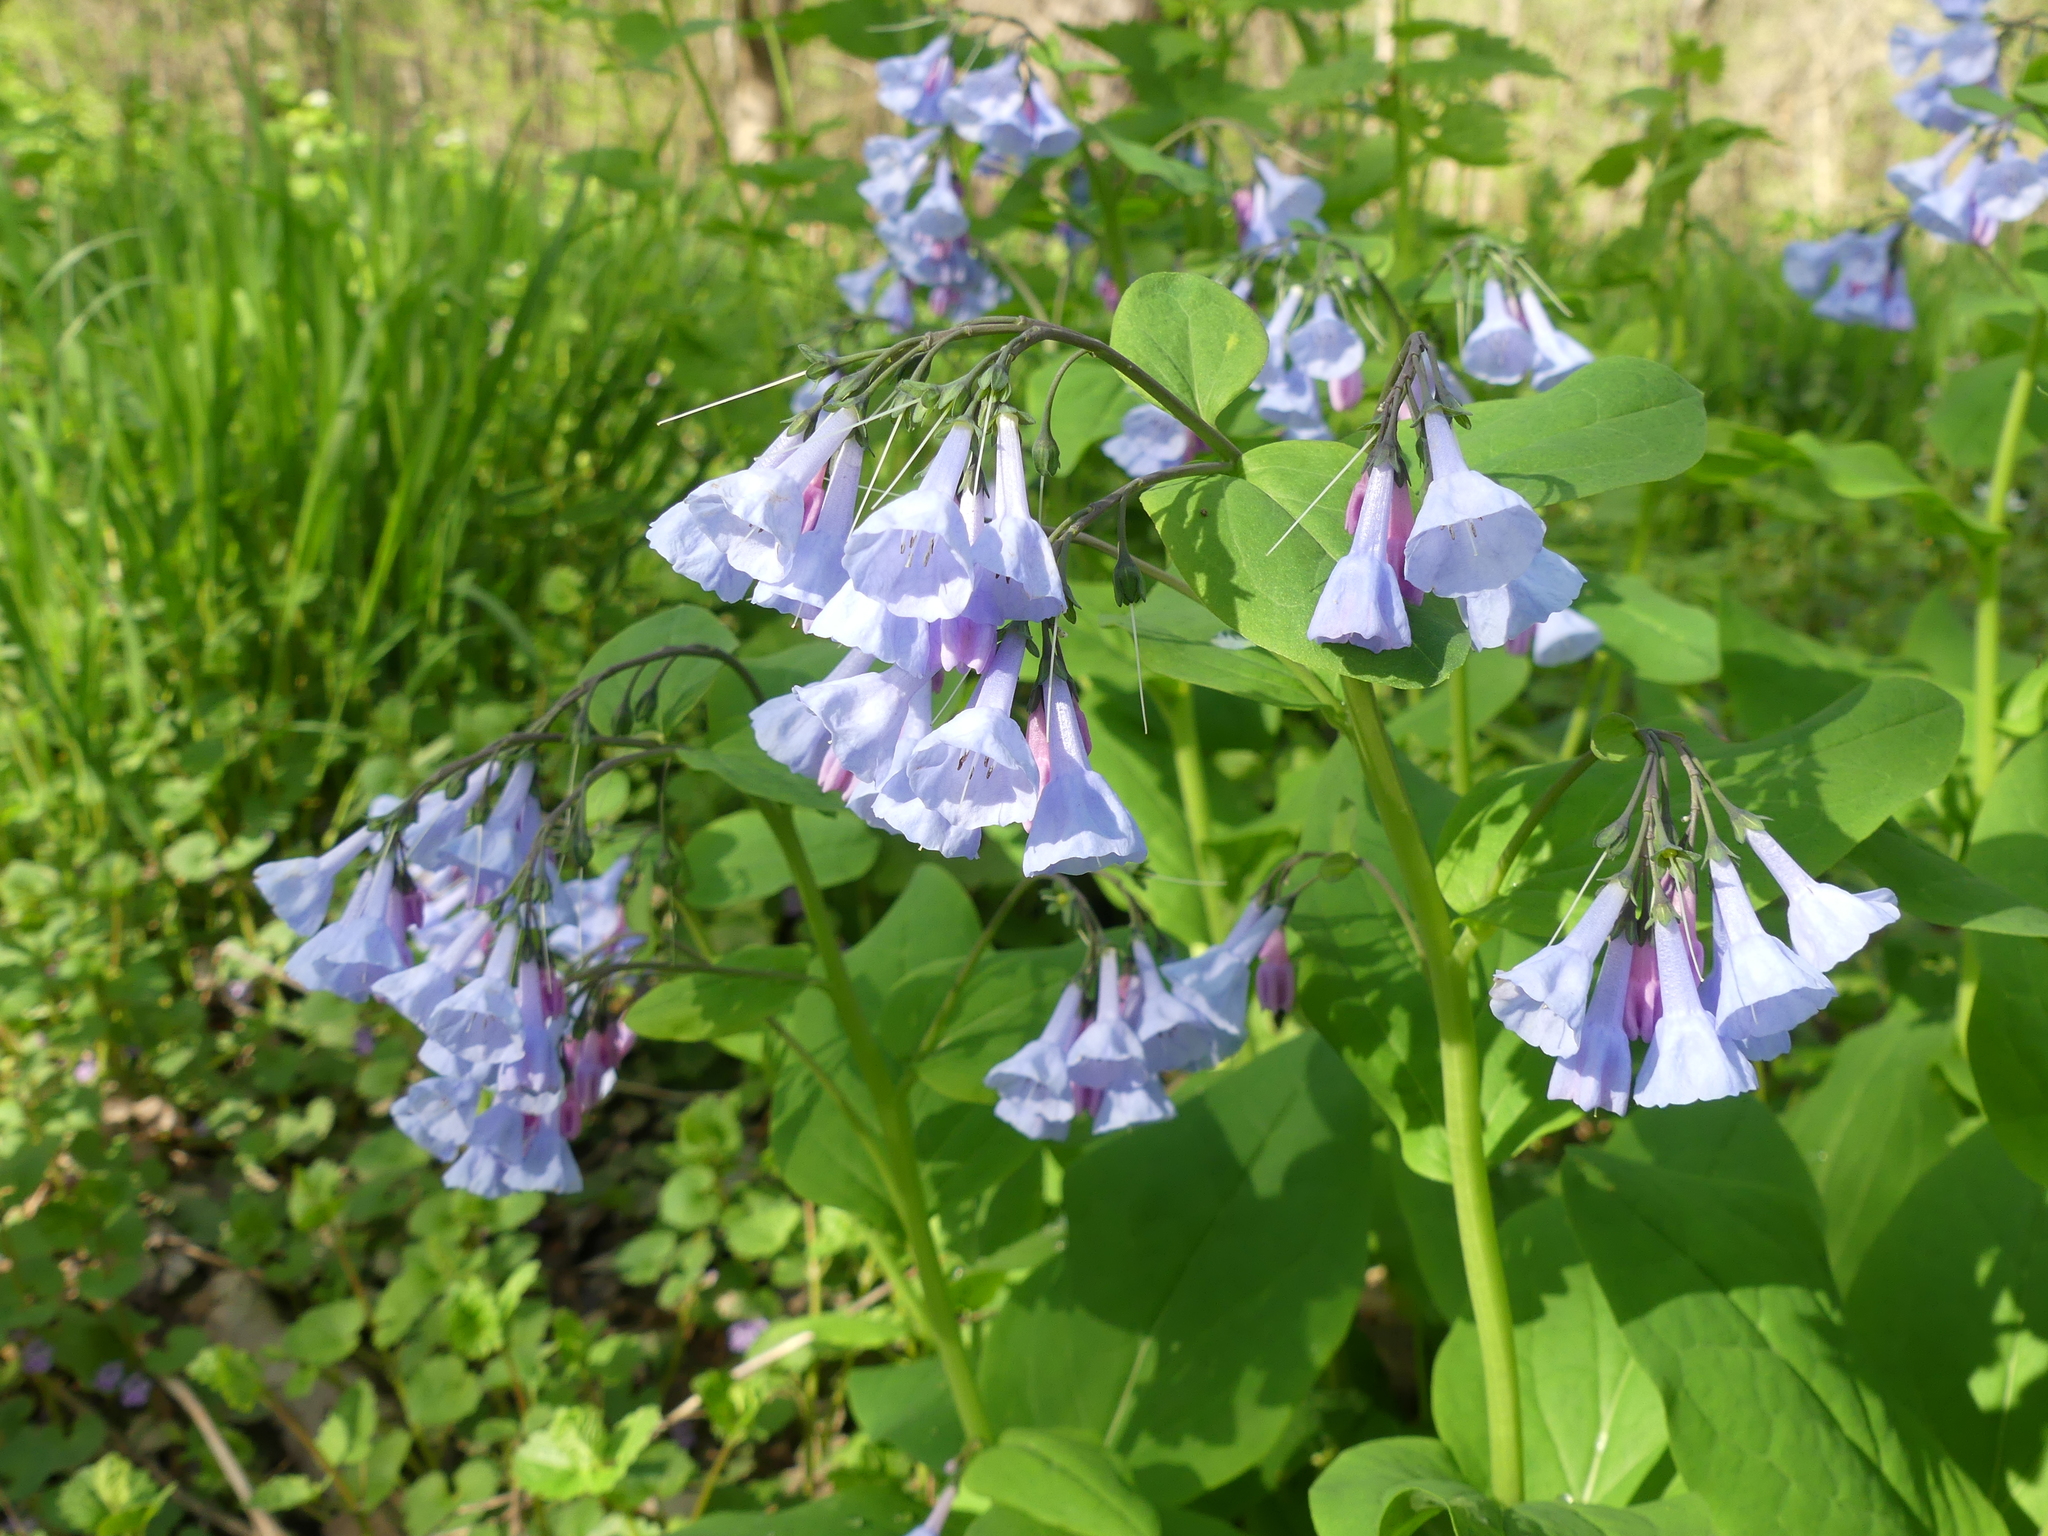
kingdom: Plantae
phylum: Tracheophyta
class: Magnoliopsida
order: Boraginales
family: Boraginaceae
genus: Mertensia
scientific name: Mertensia virginica
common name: Virginia bluebells
